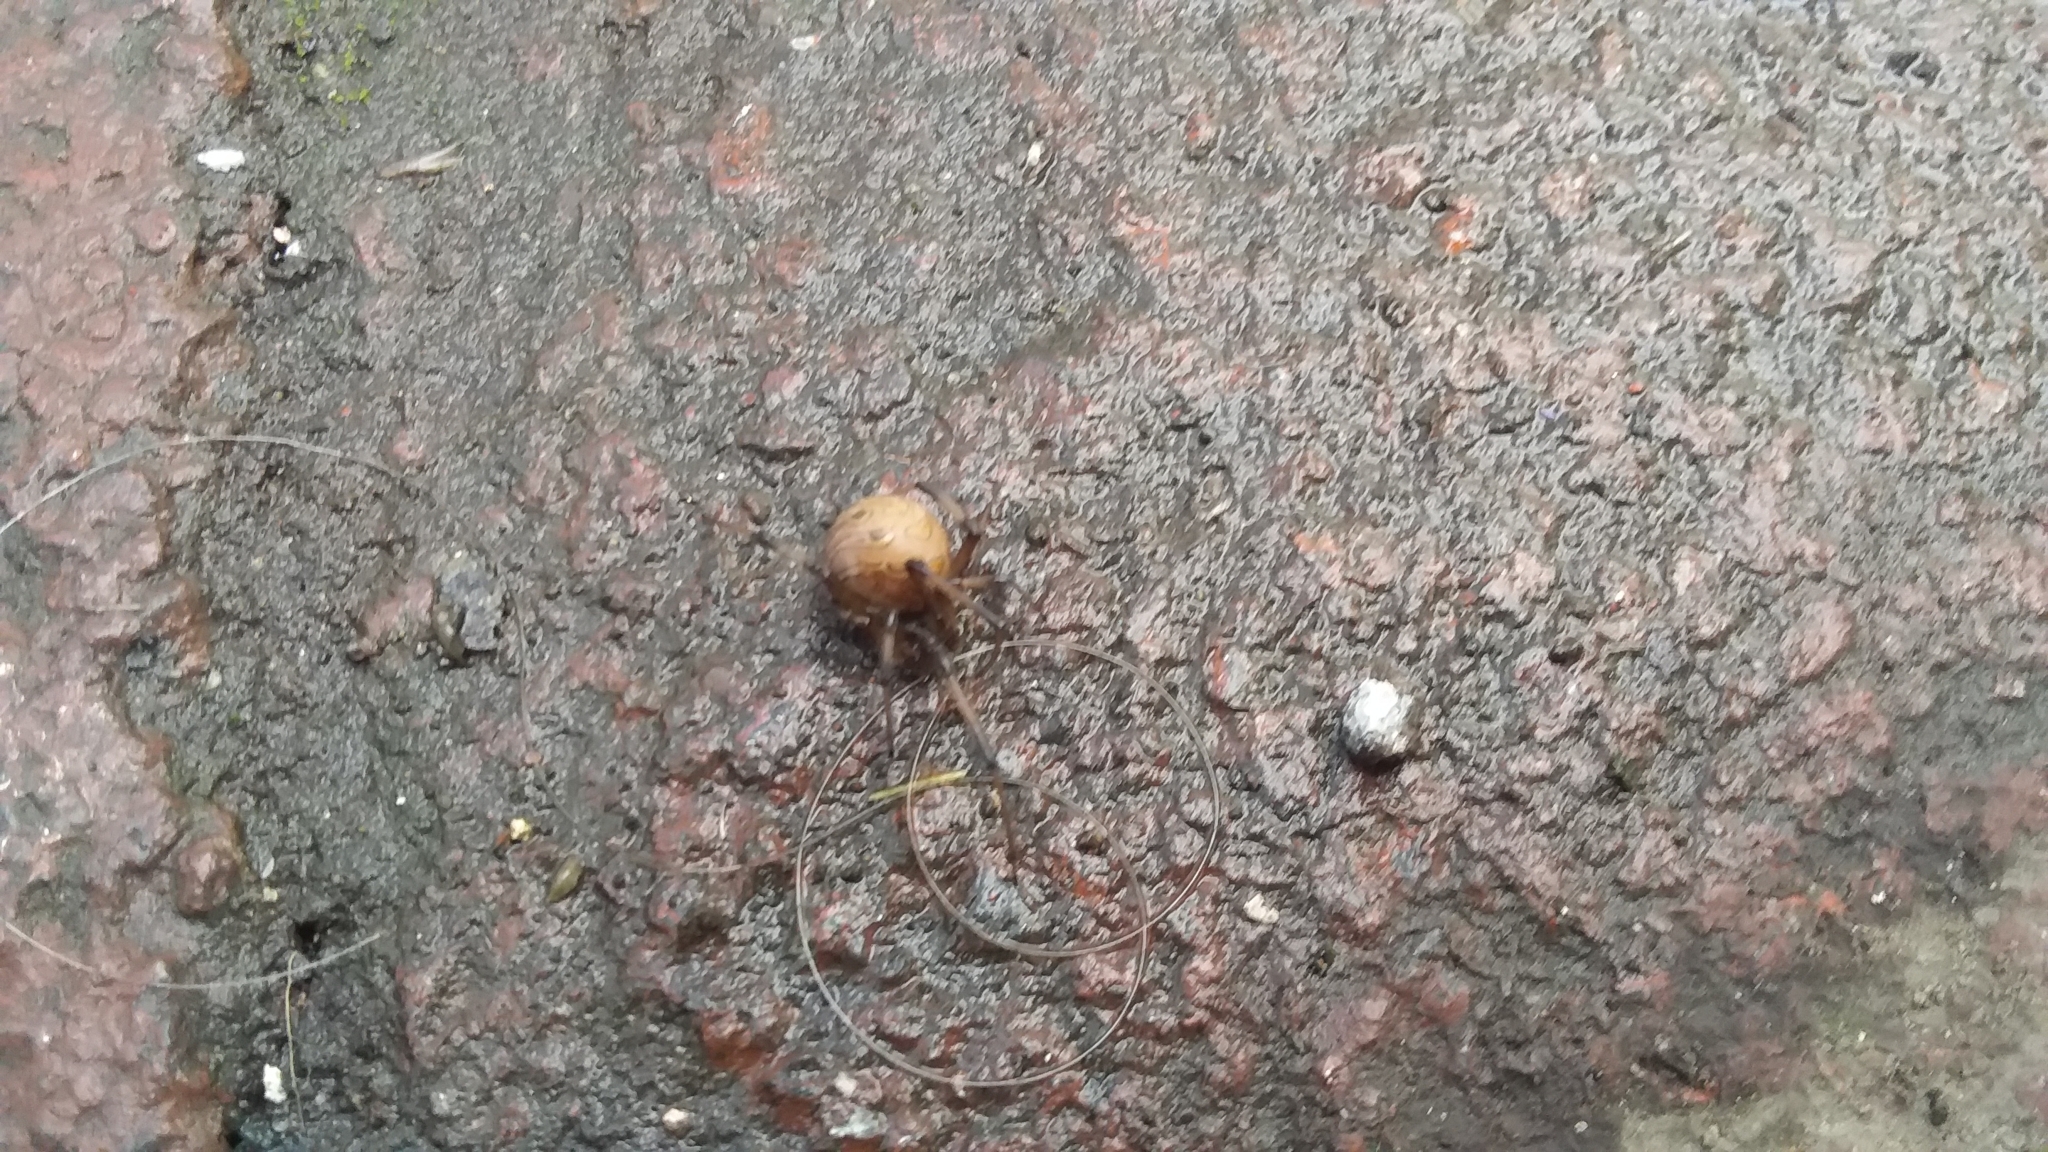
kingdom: Animalia
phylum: Arthropoda
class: Arachnida
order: Araneae
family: Theridiidae
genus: Latrodectus
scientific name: Latrodectus geometricus
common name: Brown widow spider
